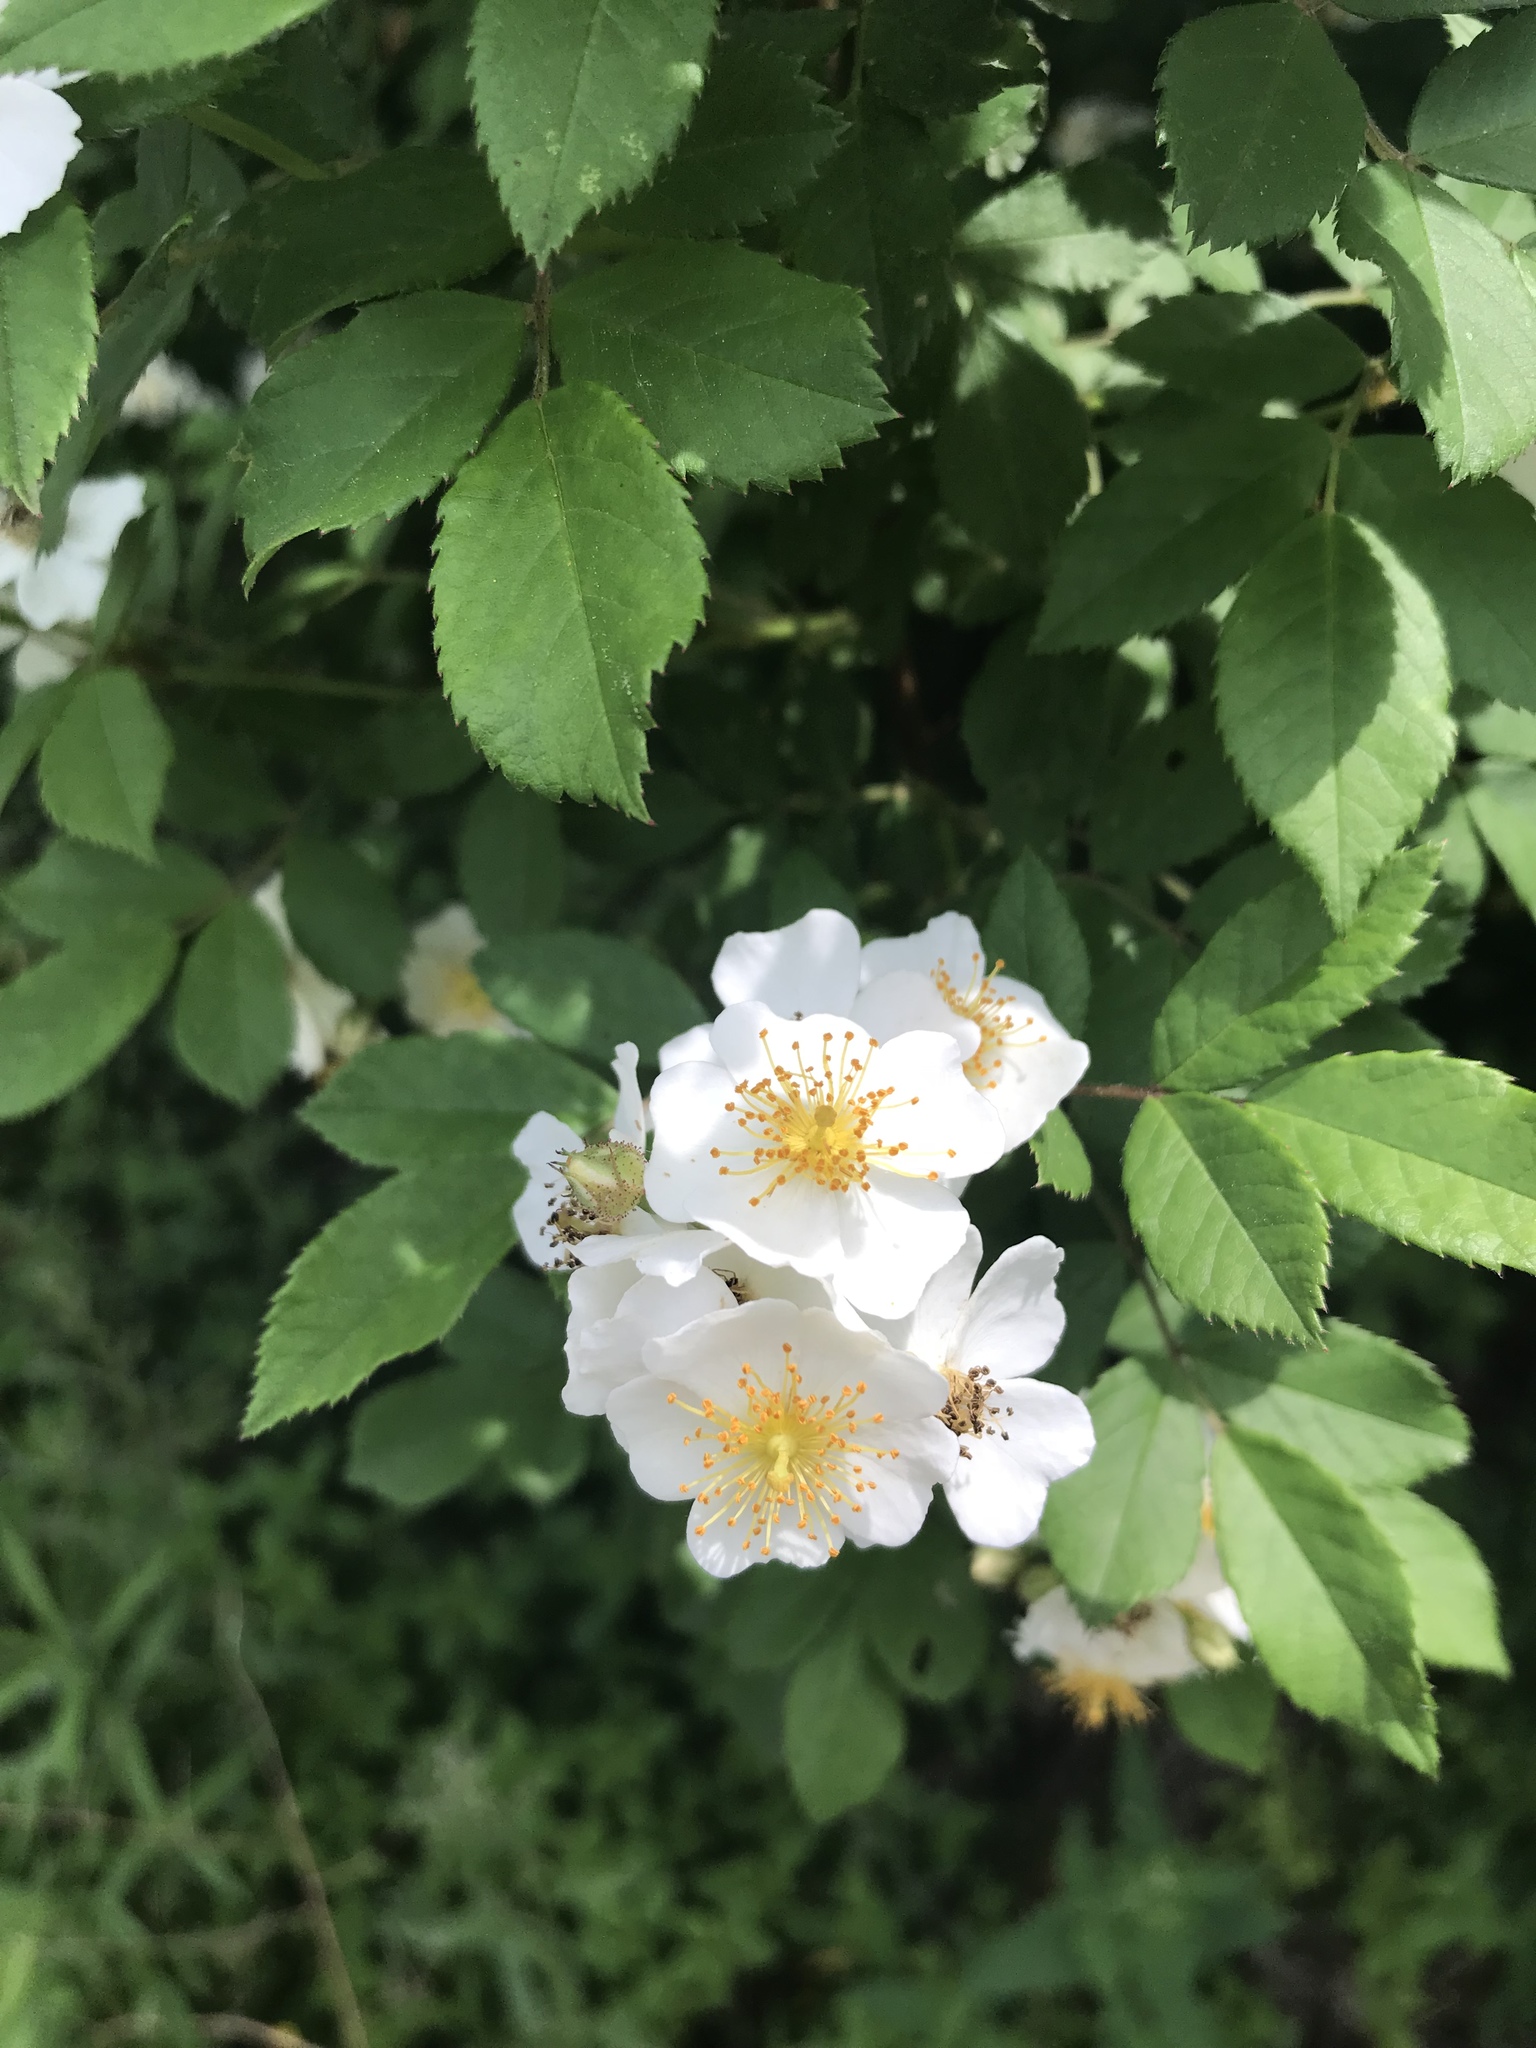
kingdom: Plantae
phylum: Tracheophyta
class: Magnoliopsida
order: Rosales
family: Rosaceae
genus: Rosa
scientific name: Rosa multiflora
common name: Multiflora rose
